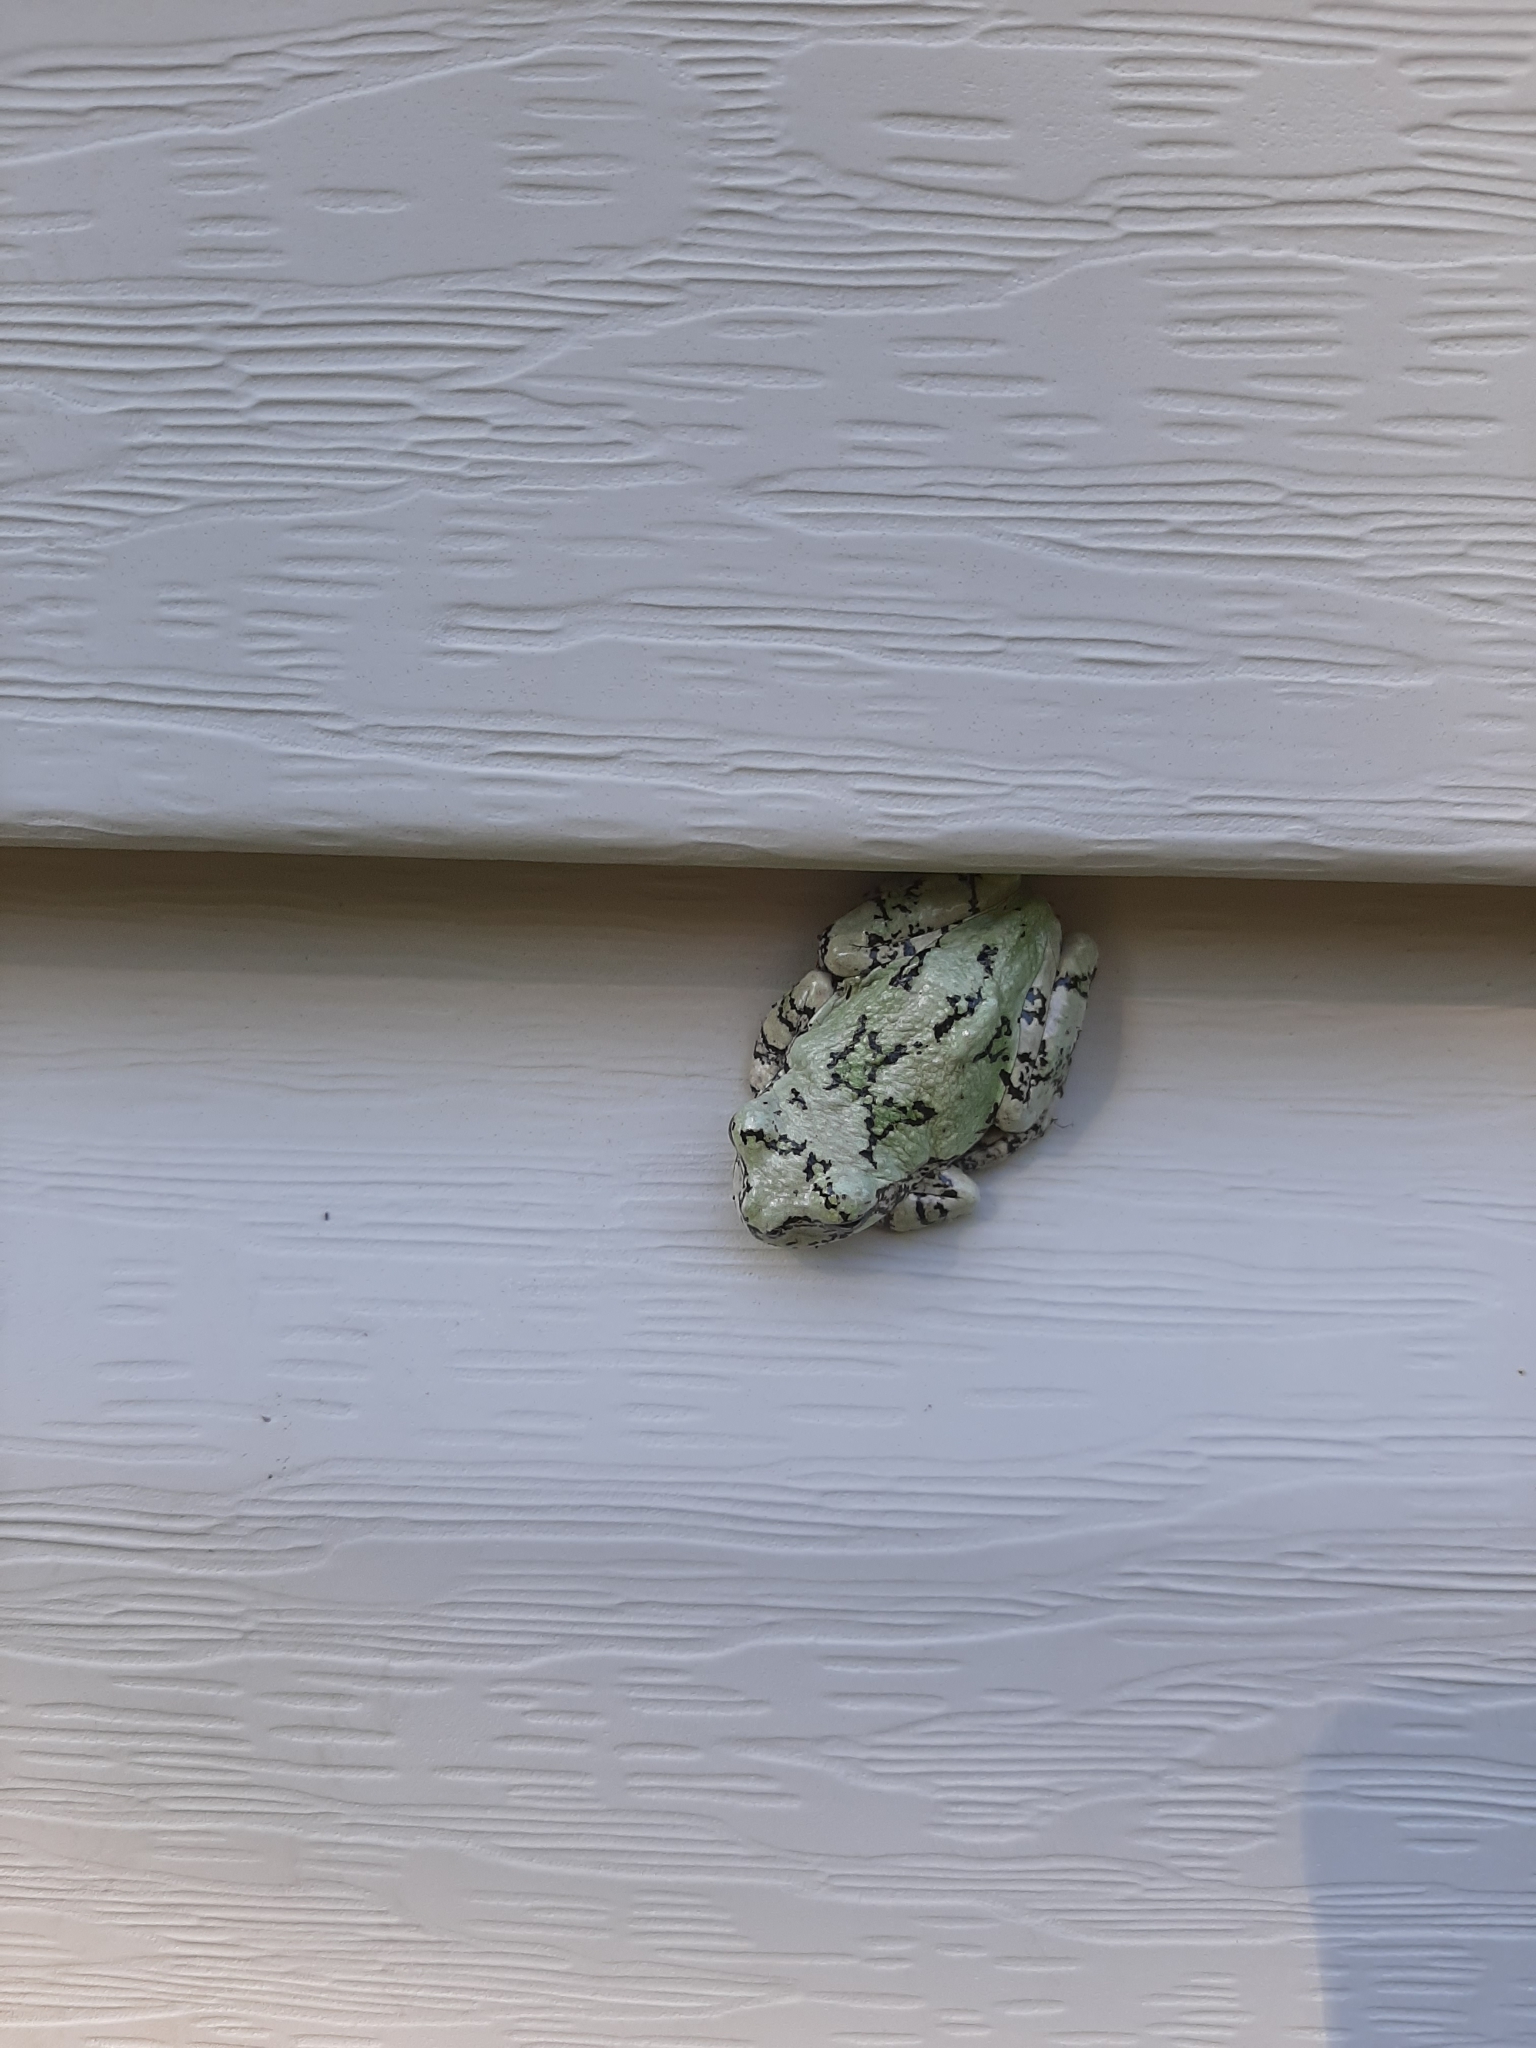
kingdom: Animalia
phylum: Chordata
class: Amphibia
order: Anura
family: Hylidae
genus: Dryophytes
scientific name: Dryophytes versicolor
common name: Gray treefrog
